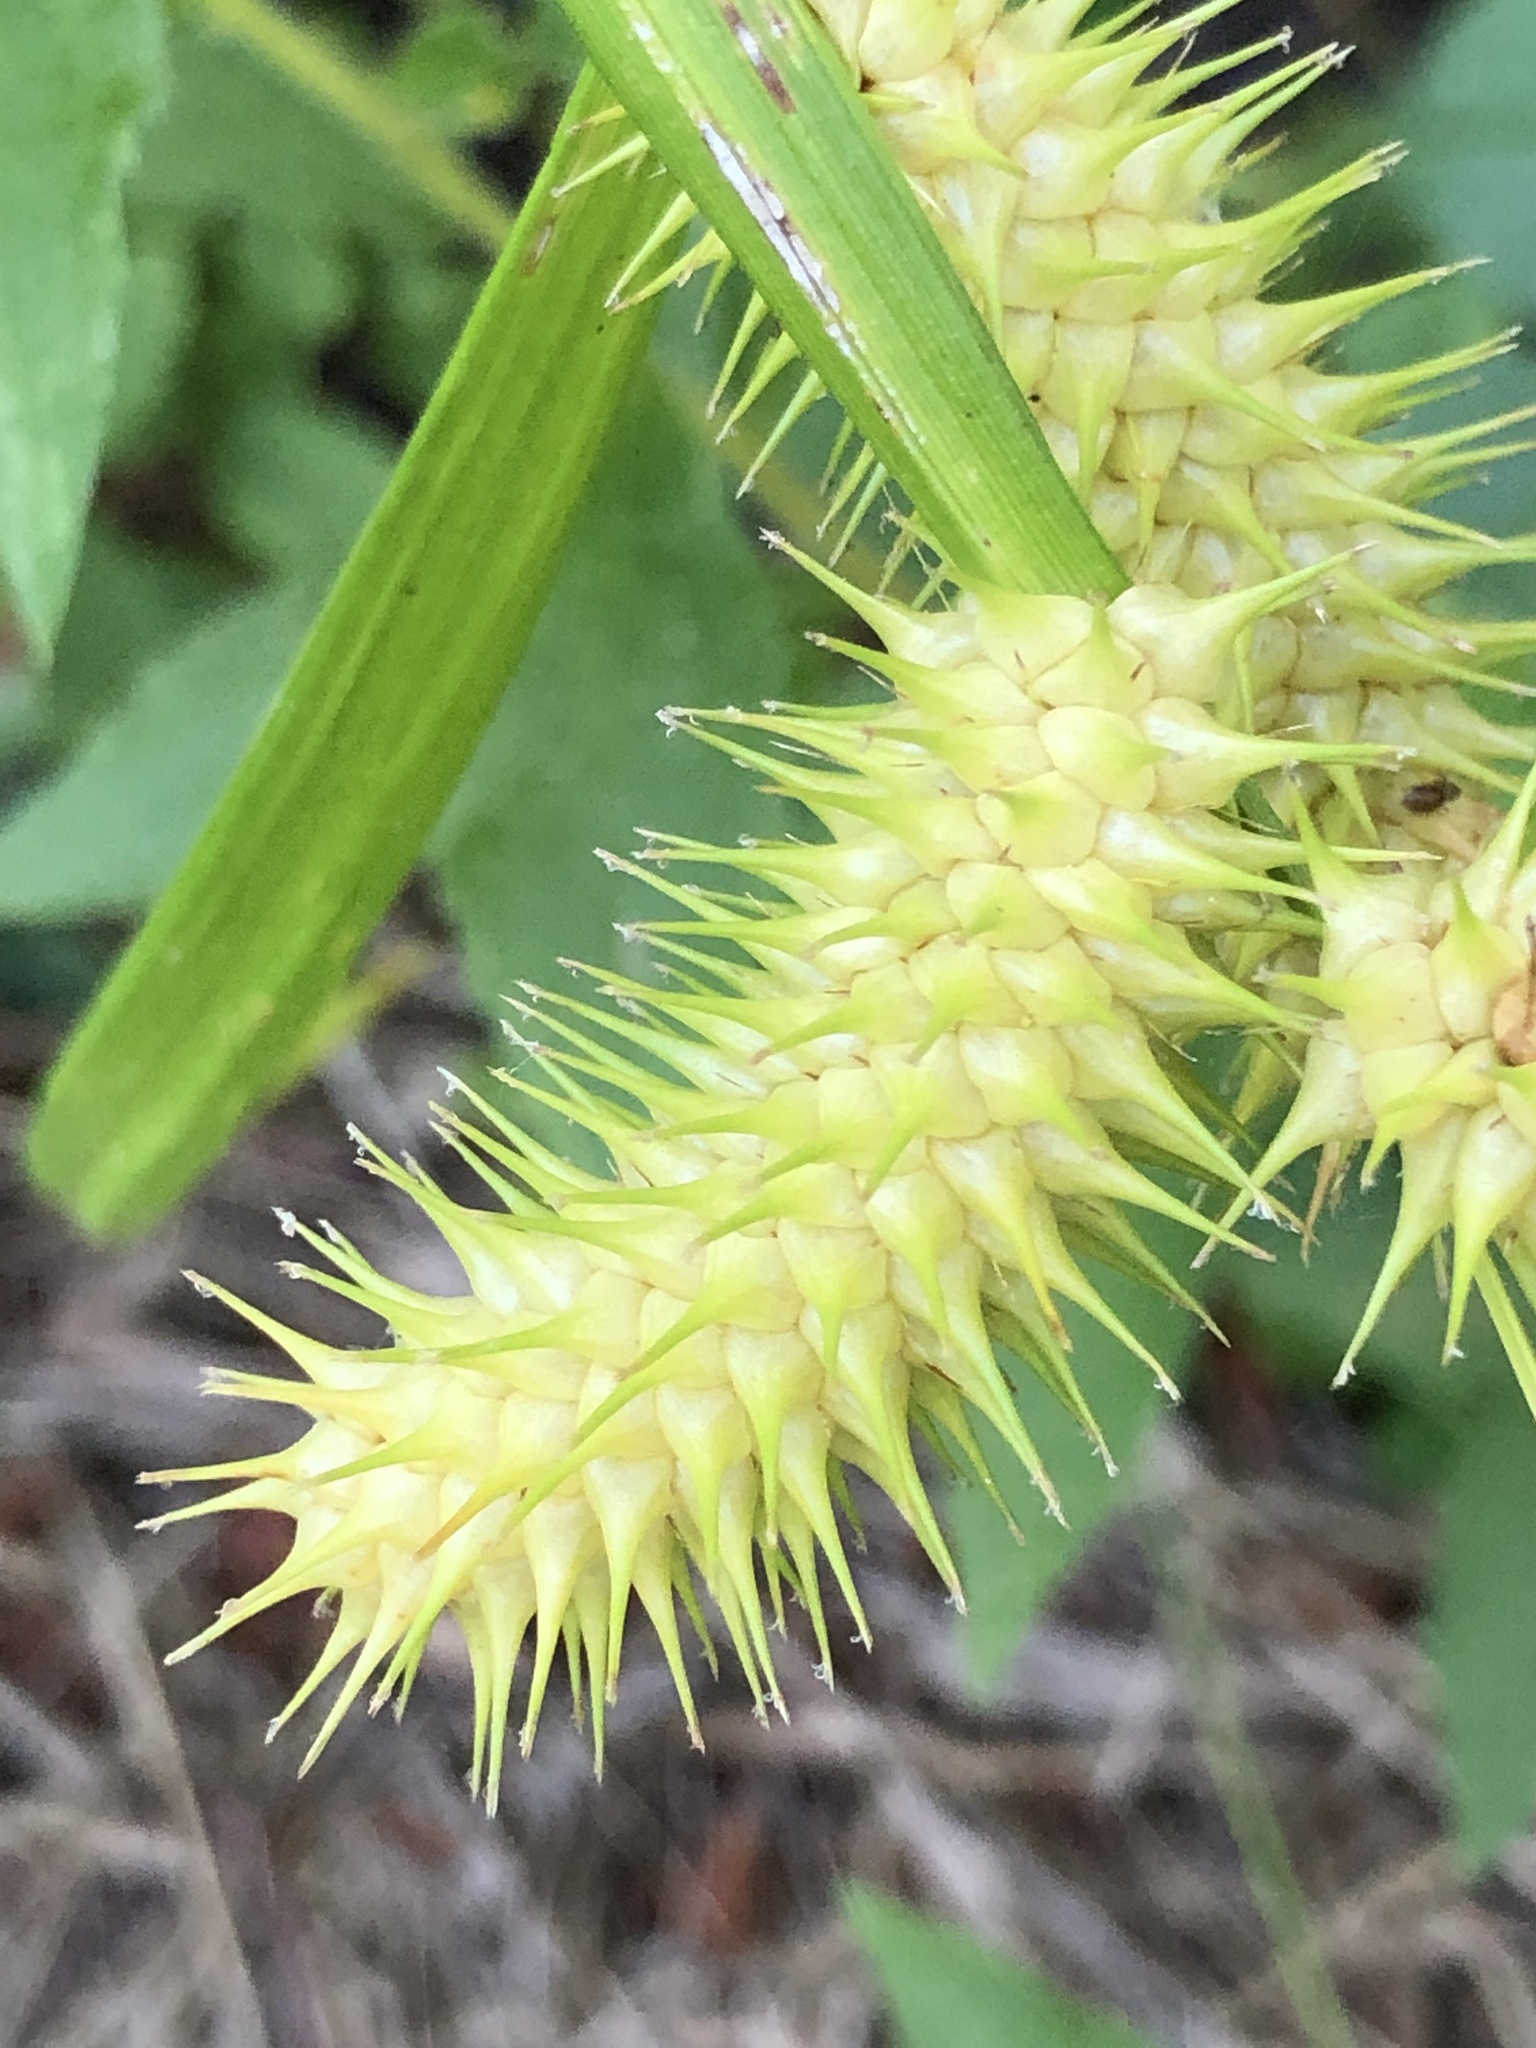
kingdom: Plantae
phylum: Tracheophyta
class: Liliopsida
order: Poales
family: Cyperaceae
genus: Carex
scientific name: Carex lurida
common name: Sallow sedge
